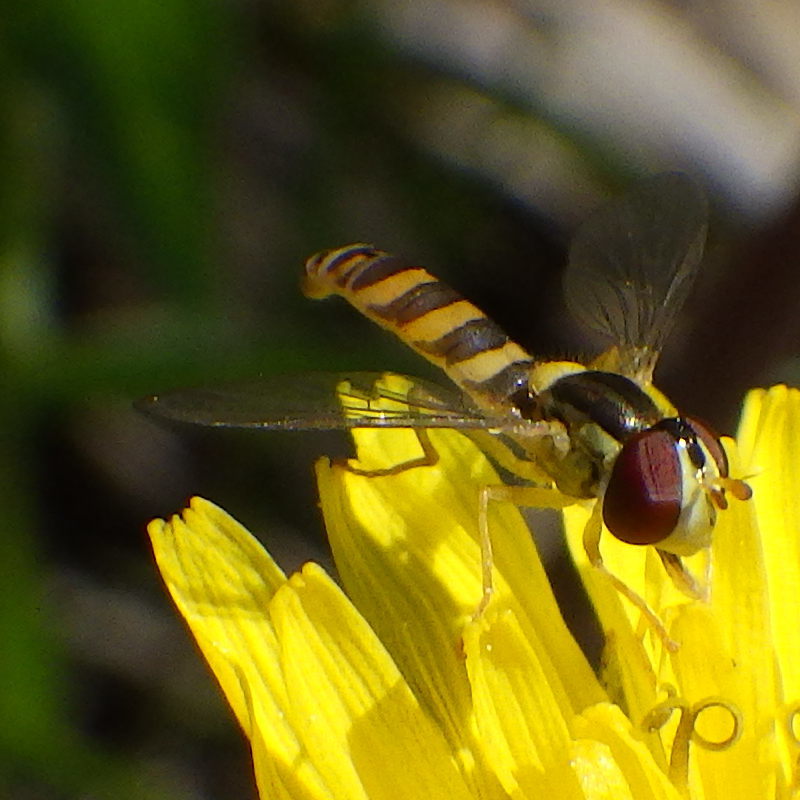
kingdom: Animalia
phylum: Arthropoda
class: Insecta
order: Diptera
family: Syrphidae
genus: Sphaerophoria
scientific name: Sphaerophoria
